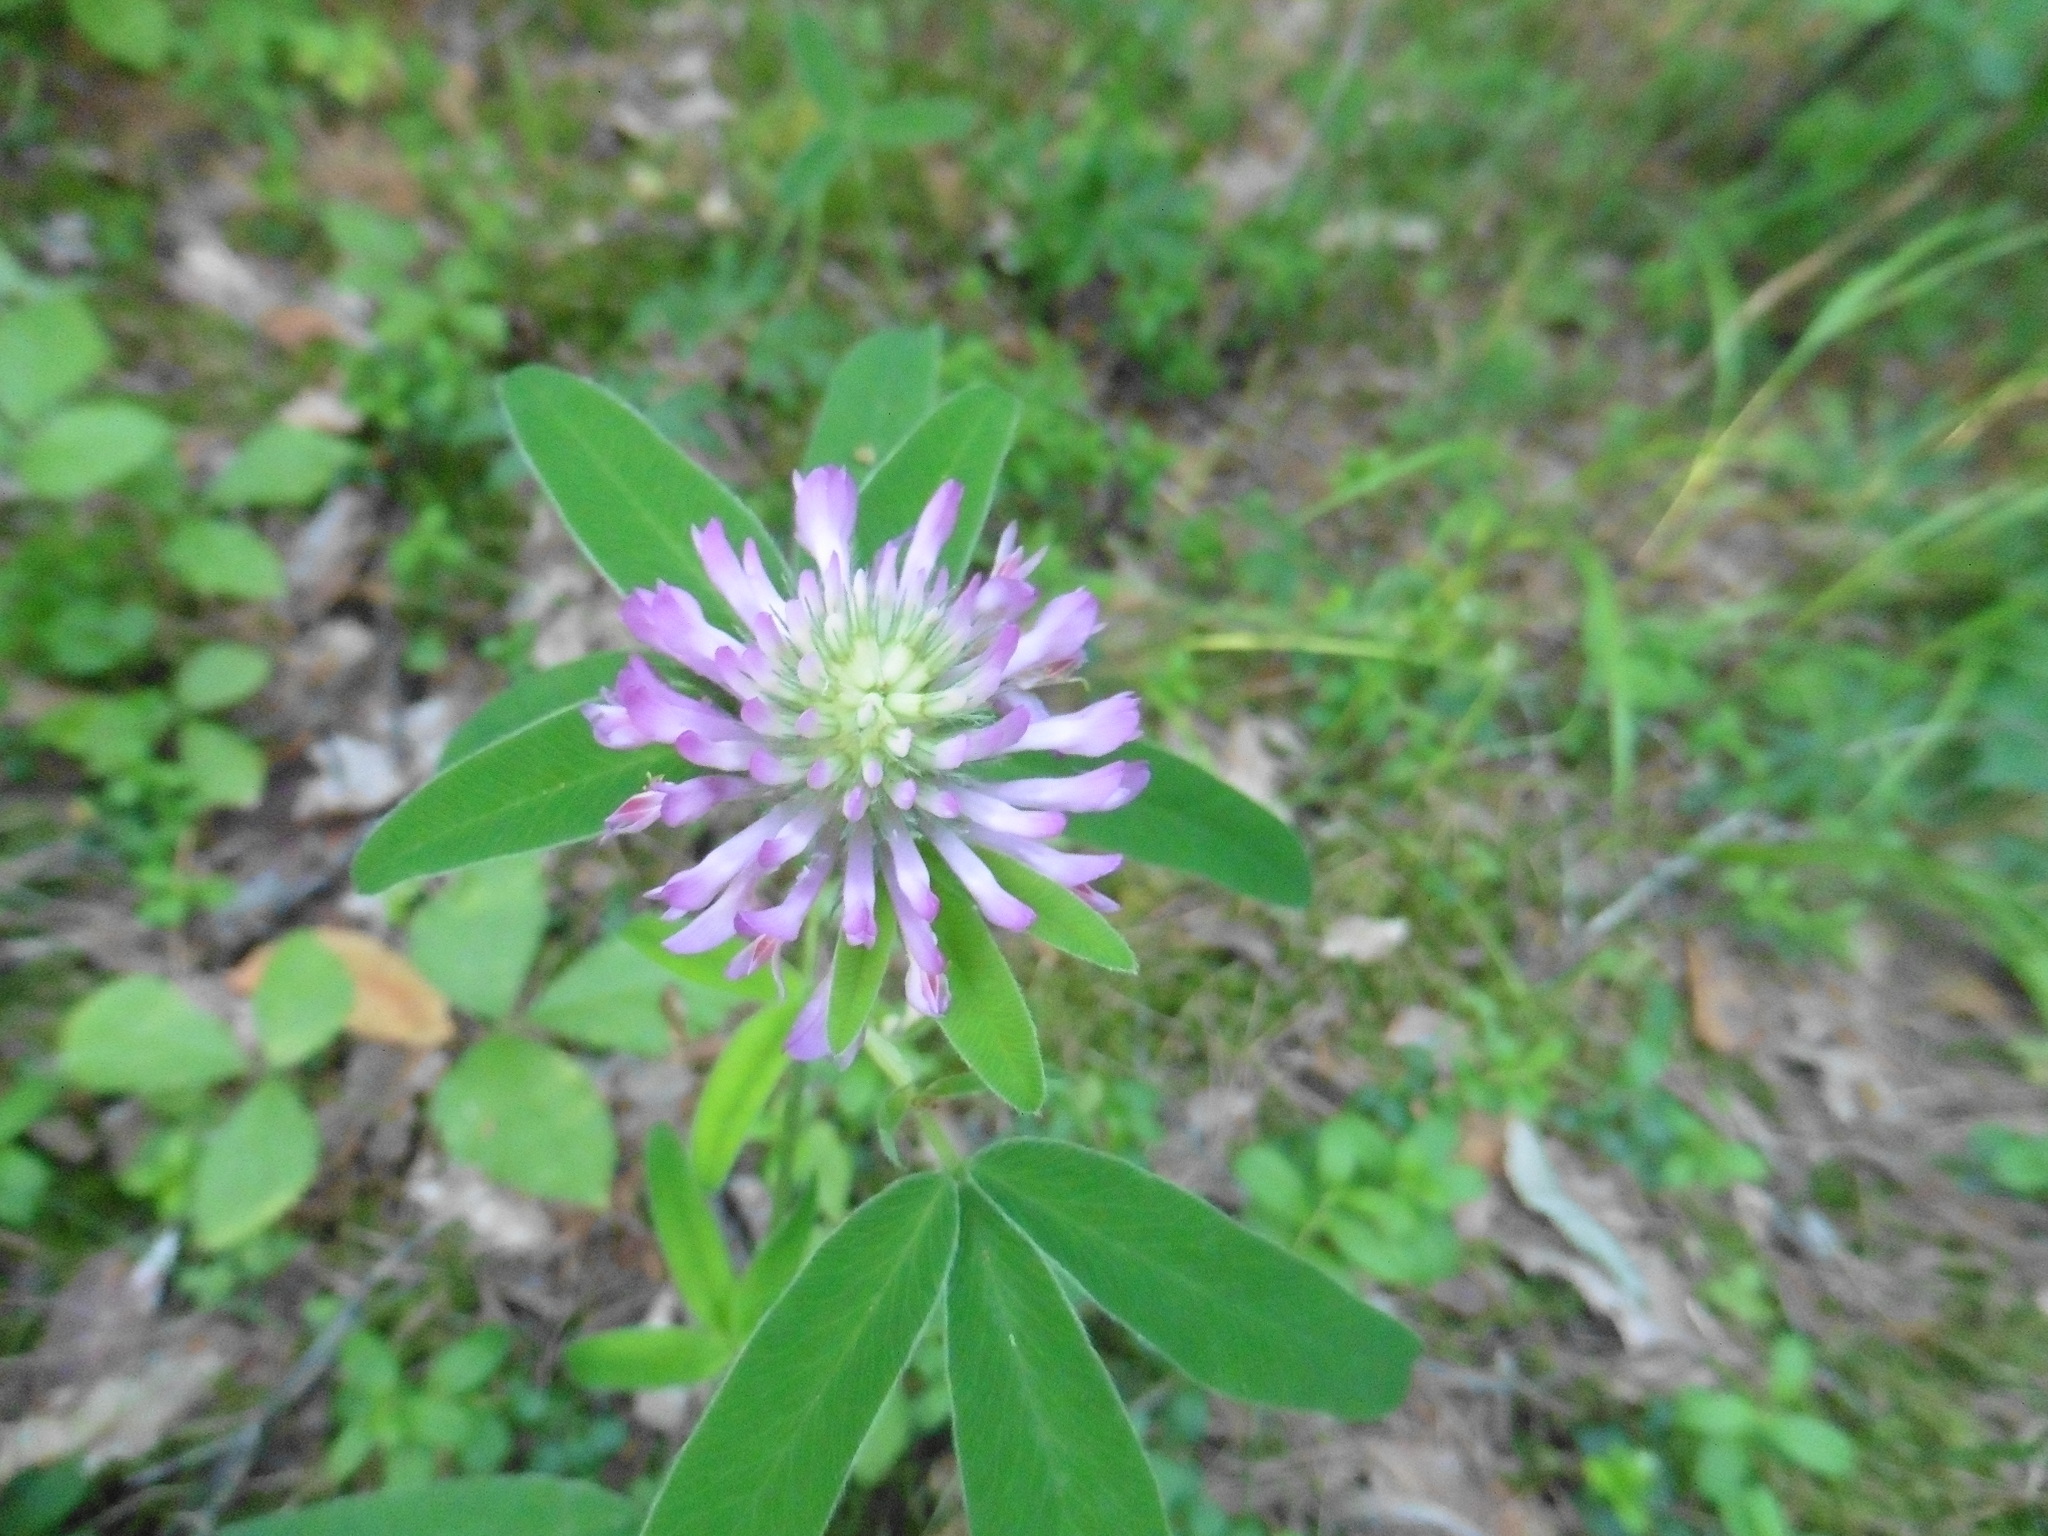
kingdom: Plantae
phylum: Tracheophyta
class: Magnoliopsida
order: Fabales
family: Fabaceae
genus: Trifolium
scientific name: Trifolium medium
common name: Zigzag clover
